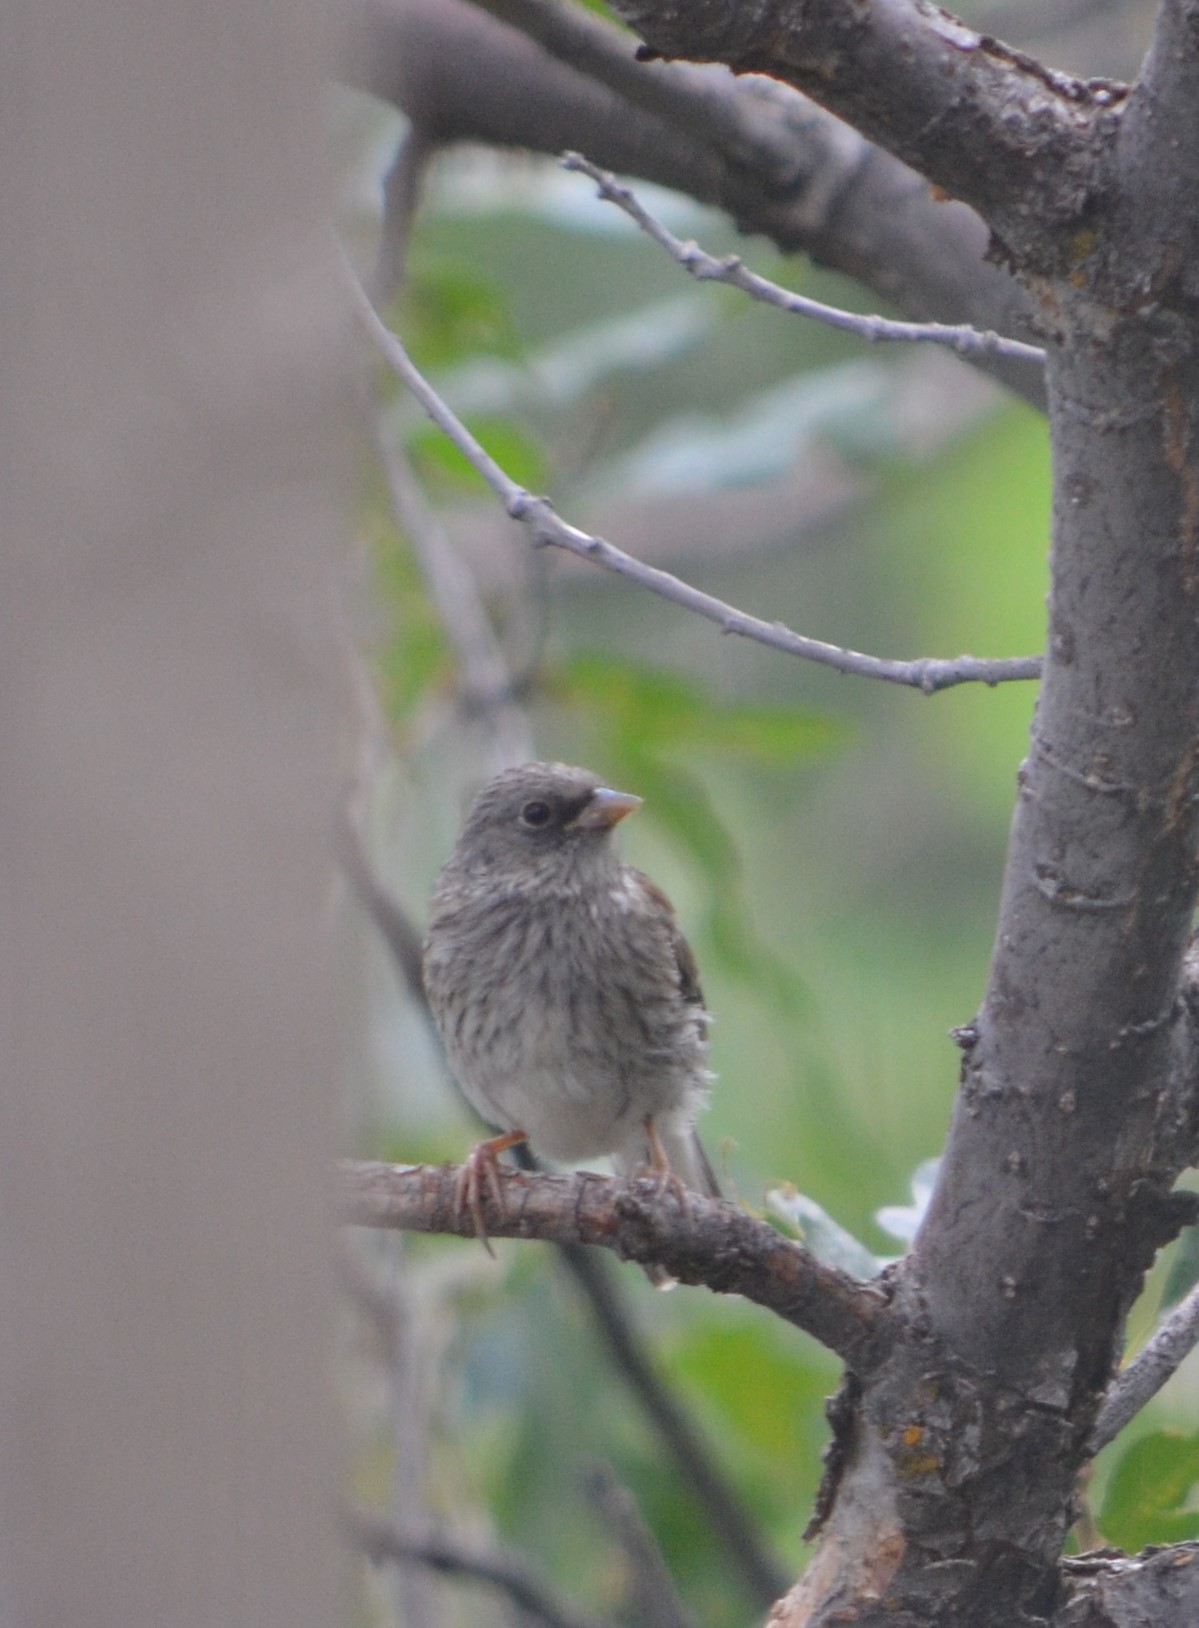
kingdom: Animalia
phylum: Chordata
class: Aves
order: Passeriformes
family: Passerellidae
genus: Junco
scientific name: Junco hyemalis
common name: Dark-eyed junco
